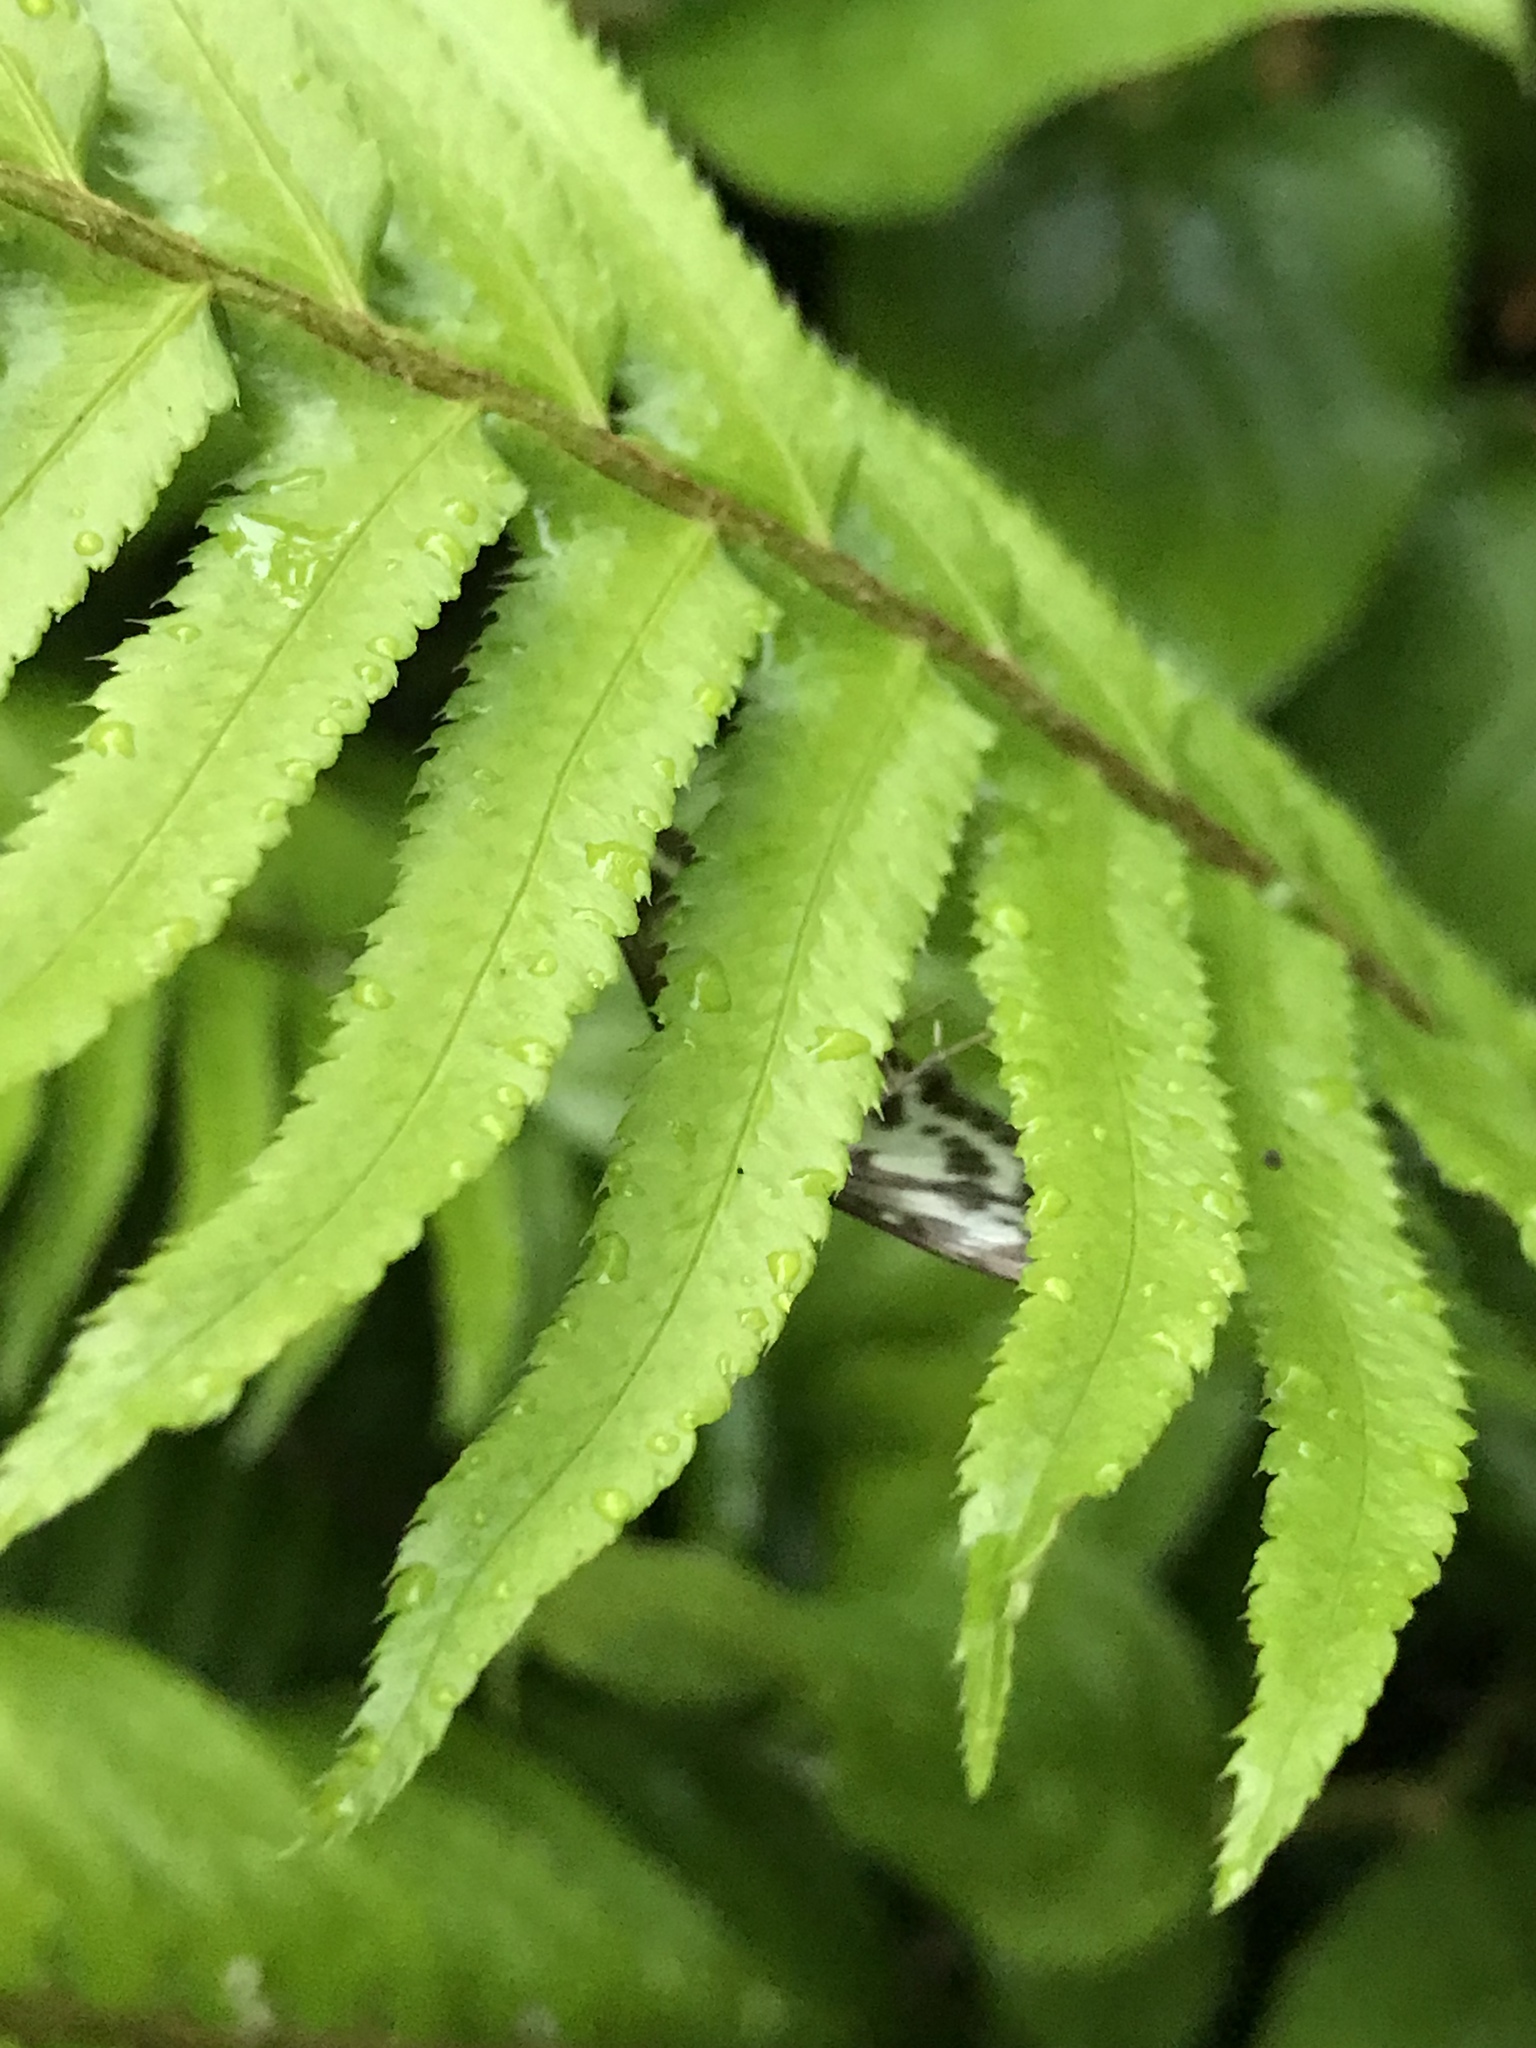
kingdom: Animalia
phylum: Arthropoda
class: Insecta
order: Lepidoptera
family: Crambidae
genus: Anania
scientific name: Anania hortulata
